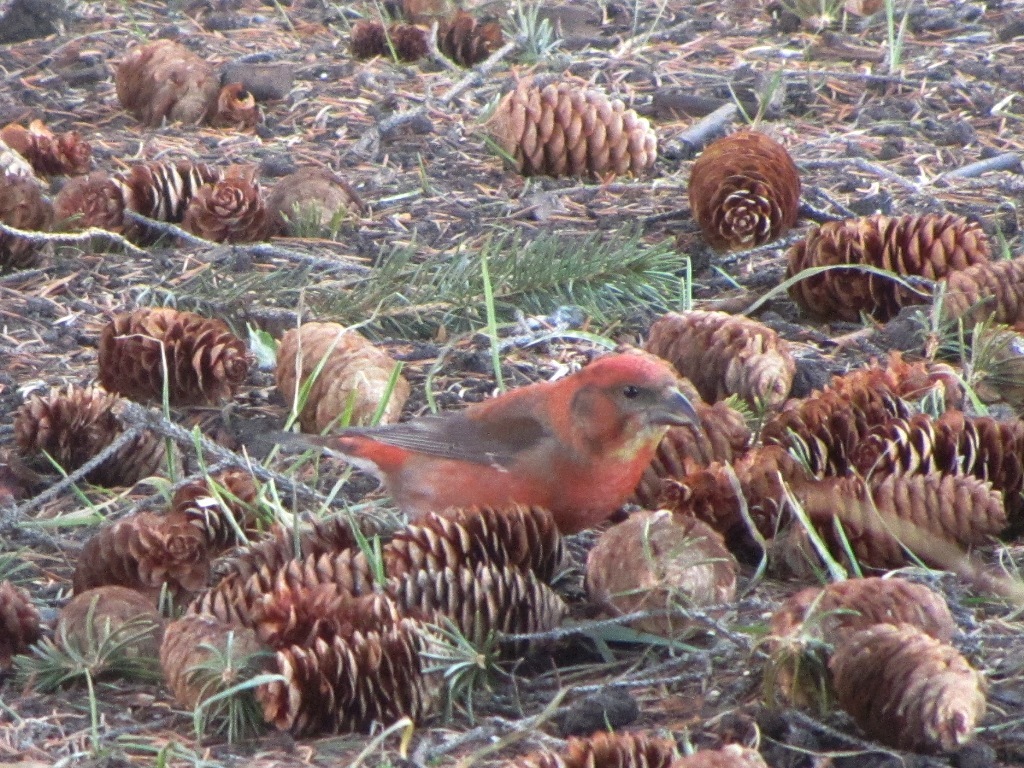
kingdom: Animalia
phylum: Chordata
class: Aves
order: Passeriformes
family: Fringillidae
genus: Loxia
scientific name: Loxia curvirostra
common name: Red crossbill
